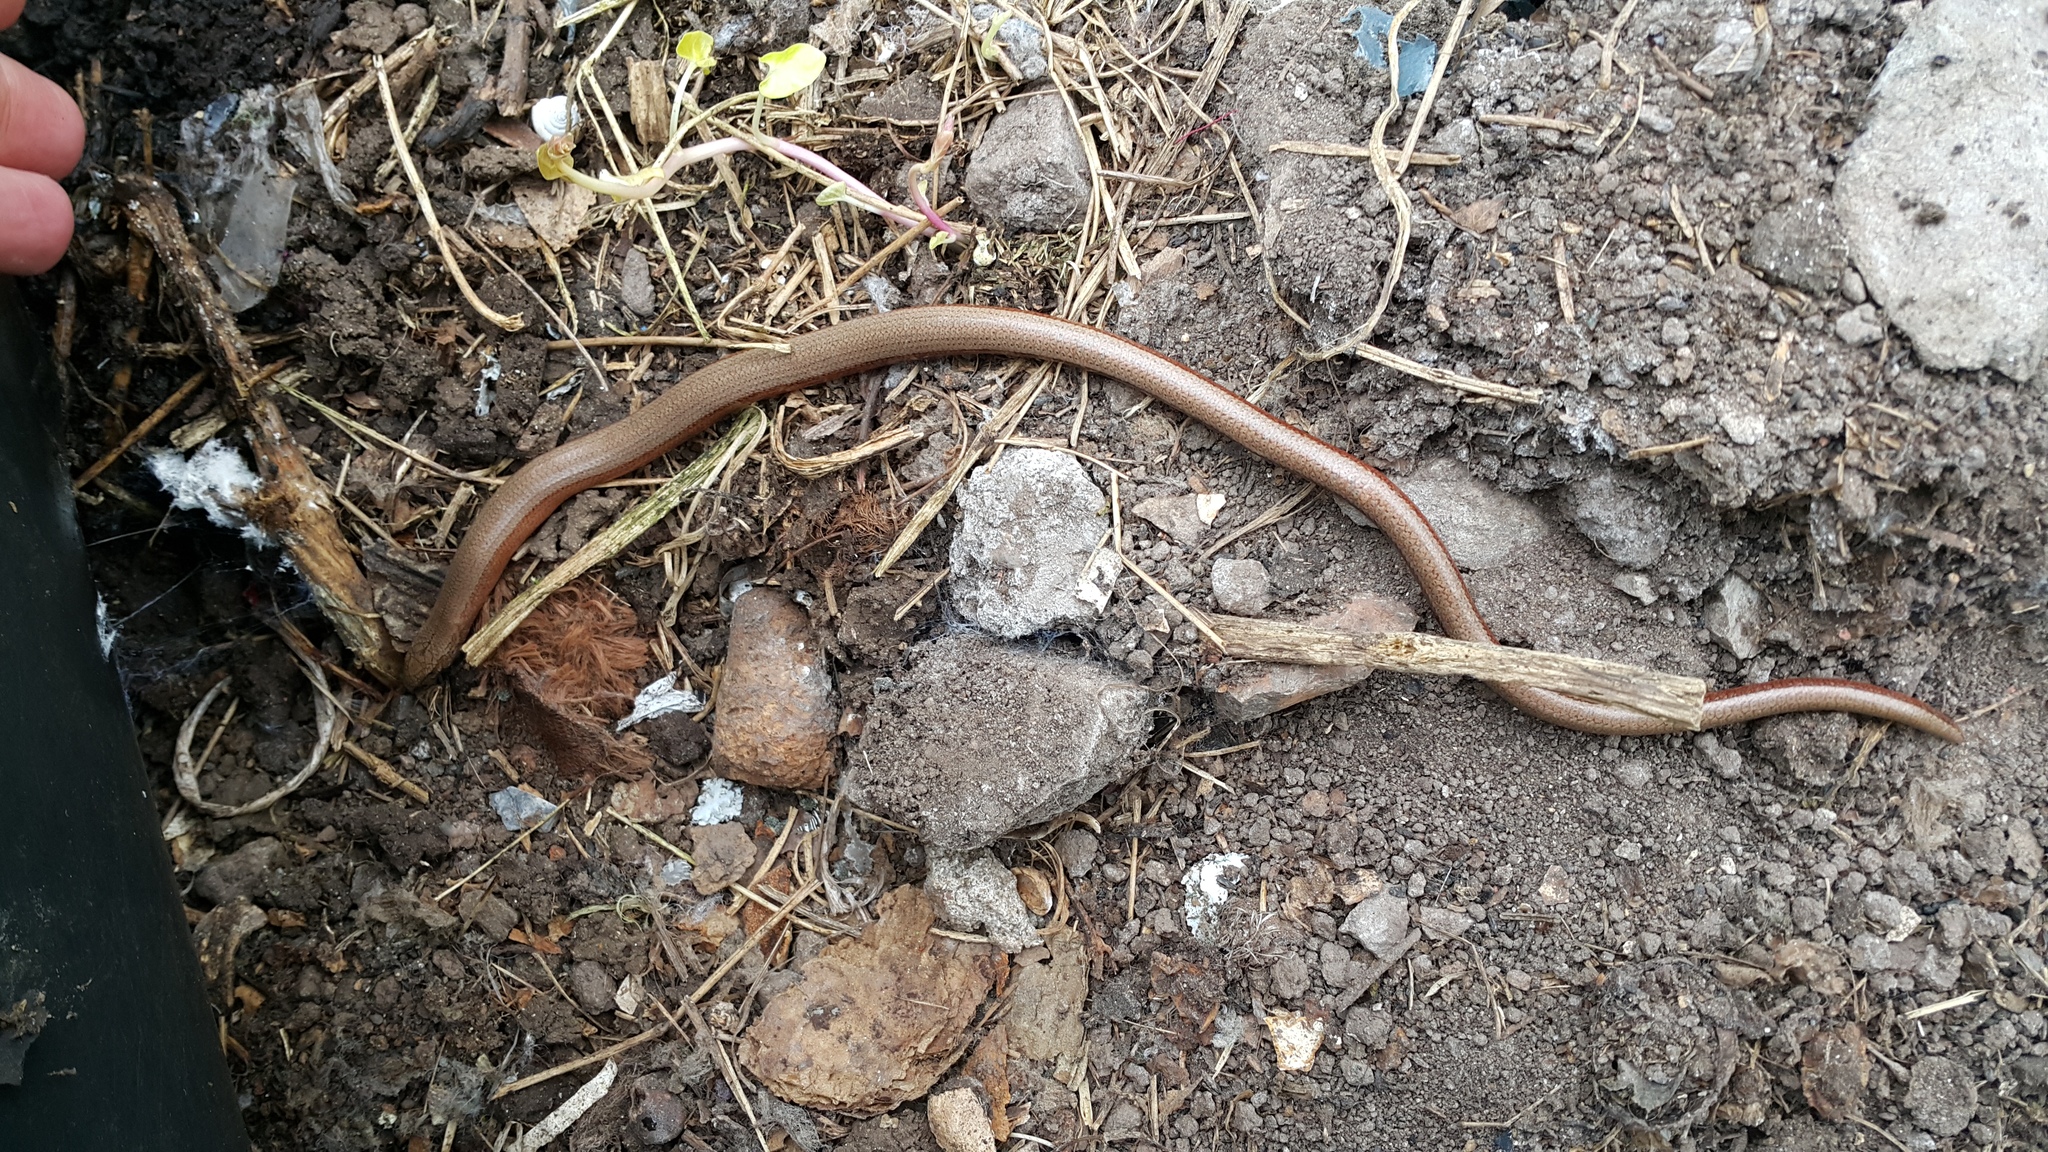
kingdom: Animalia
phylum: Chordata
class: Squamata
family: Anguidae
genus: Anguis
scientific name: Anguis fragilis
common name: Slow worm
